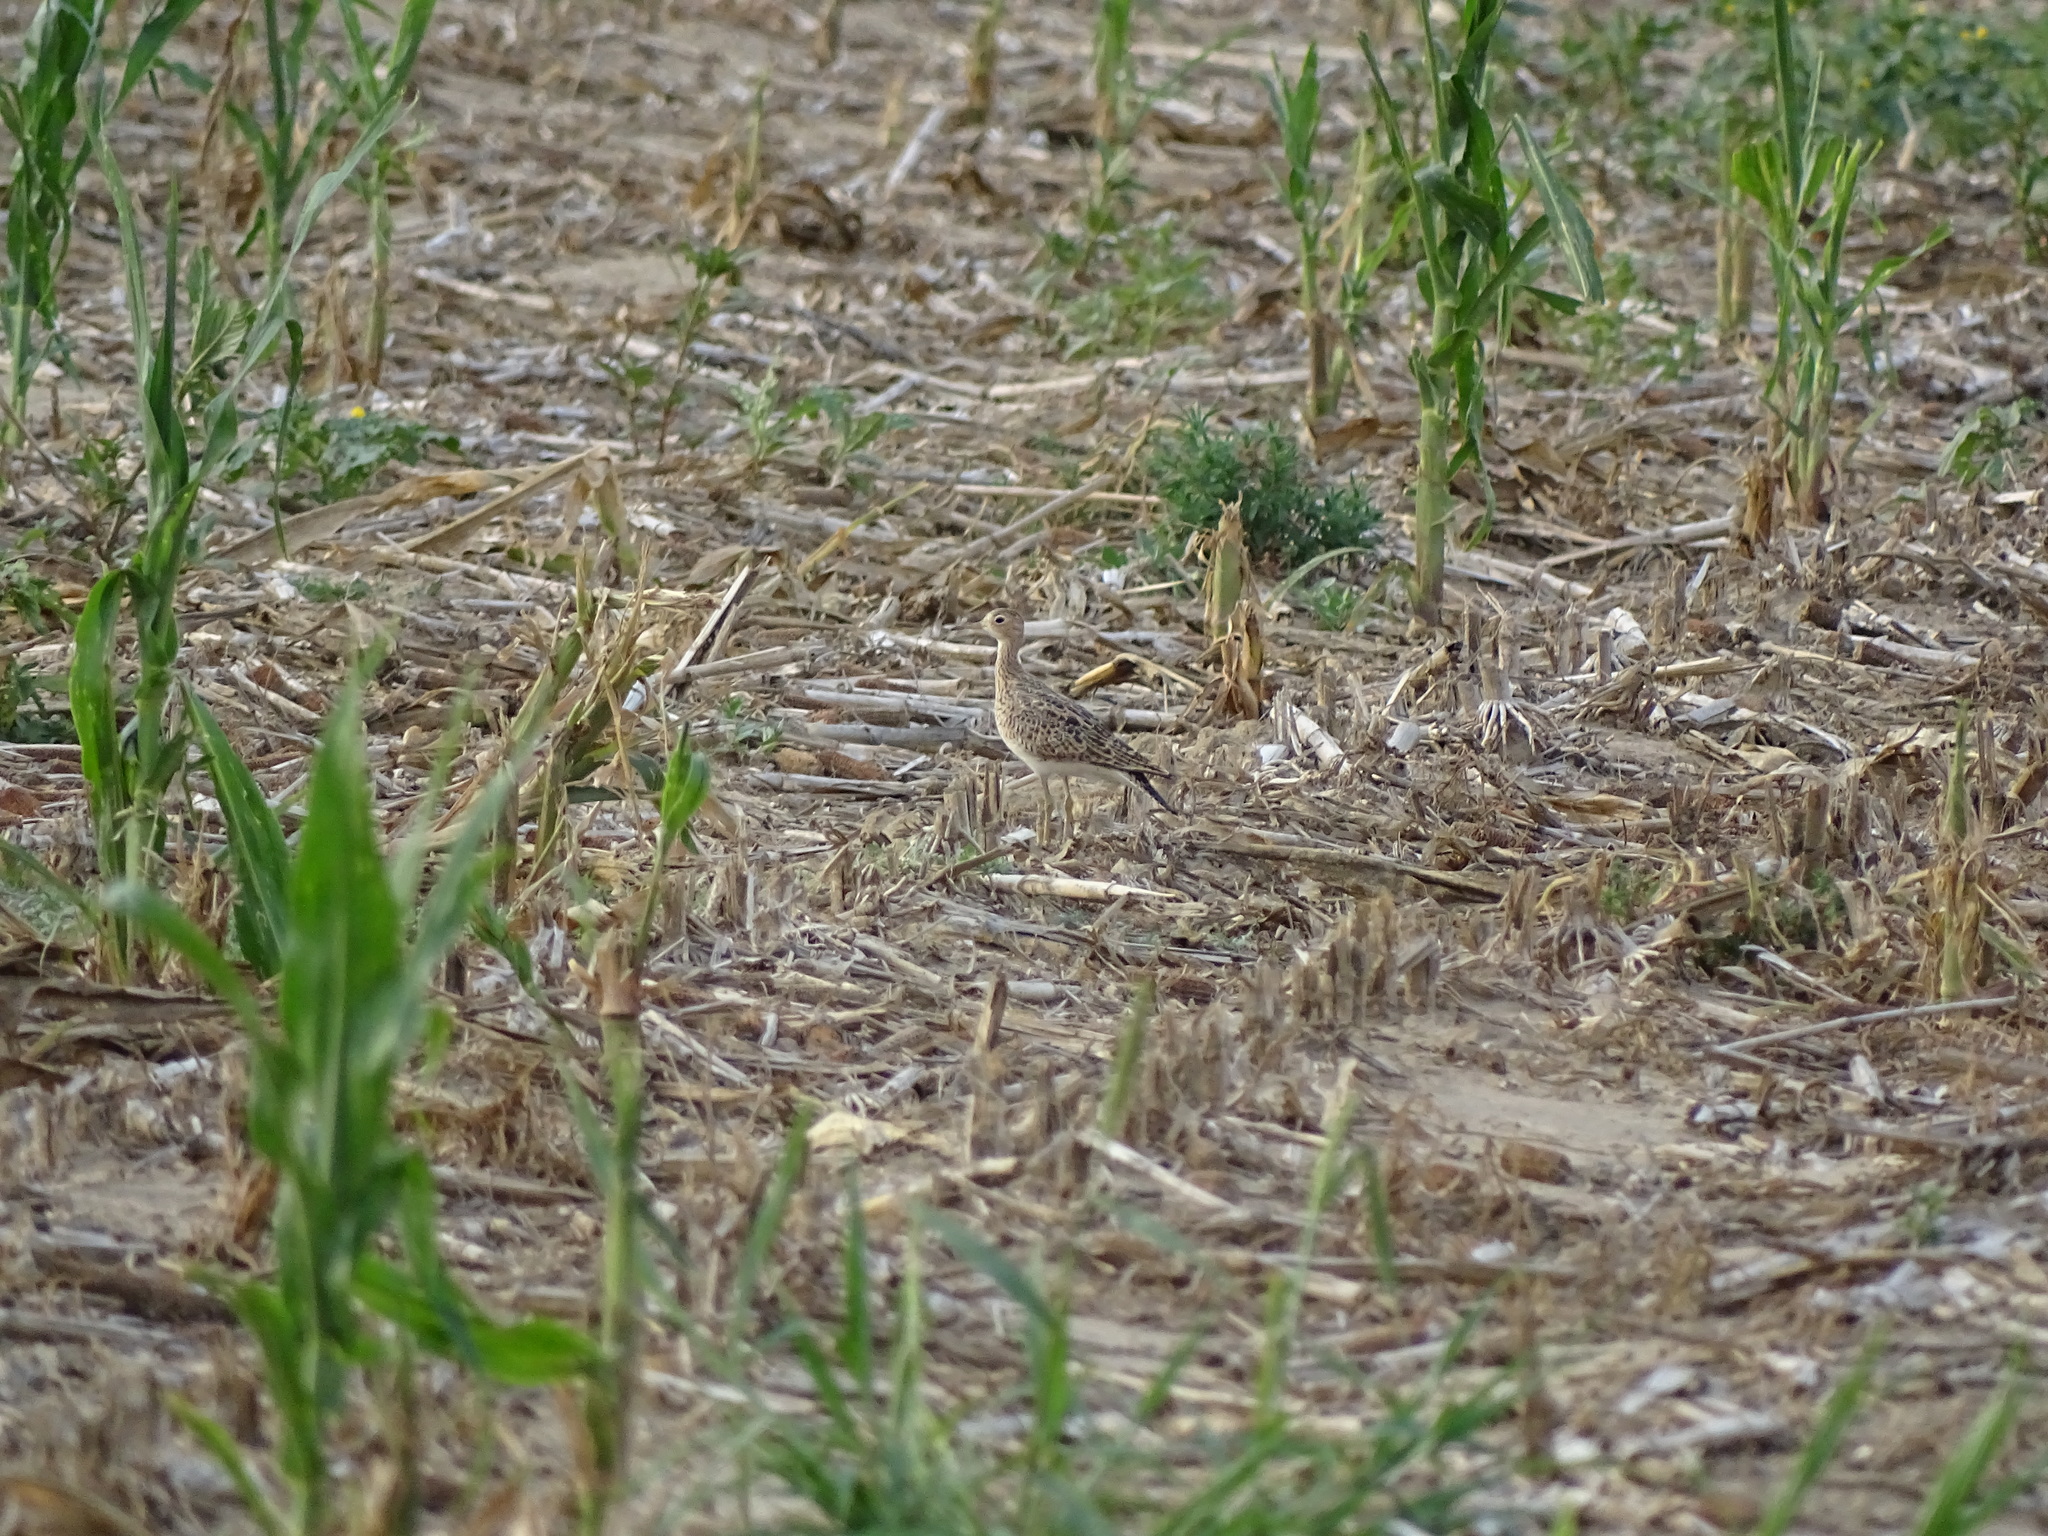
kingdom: Animalia
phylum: Chordata
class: Aves
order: Charadriiformes
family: Scolopacidae
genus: Bartramia
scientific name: Bartramia longicauda
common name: Upland sandpiper
